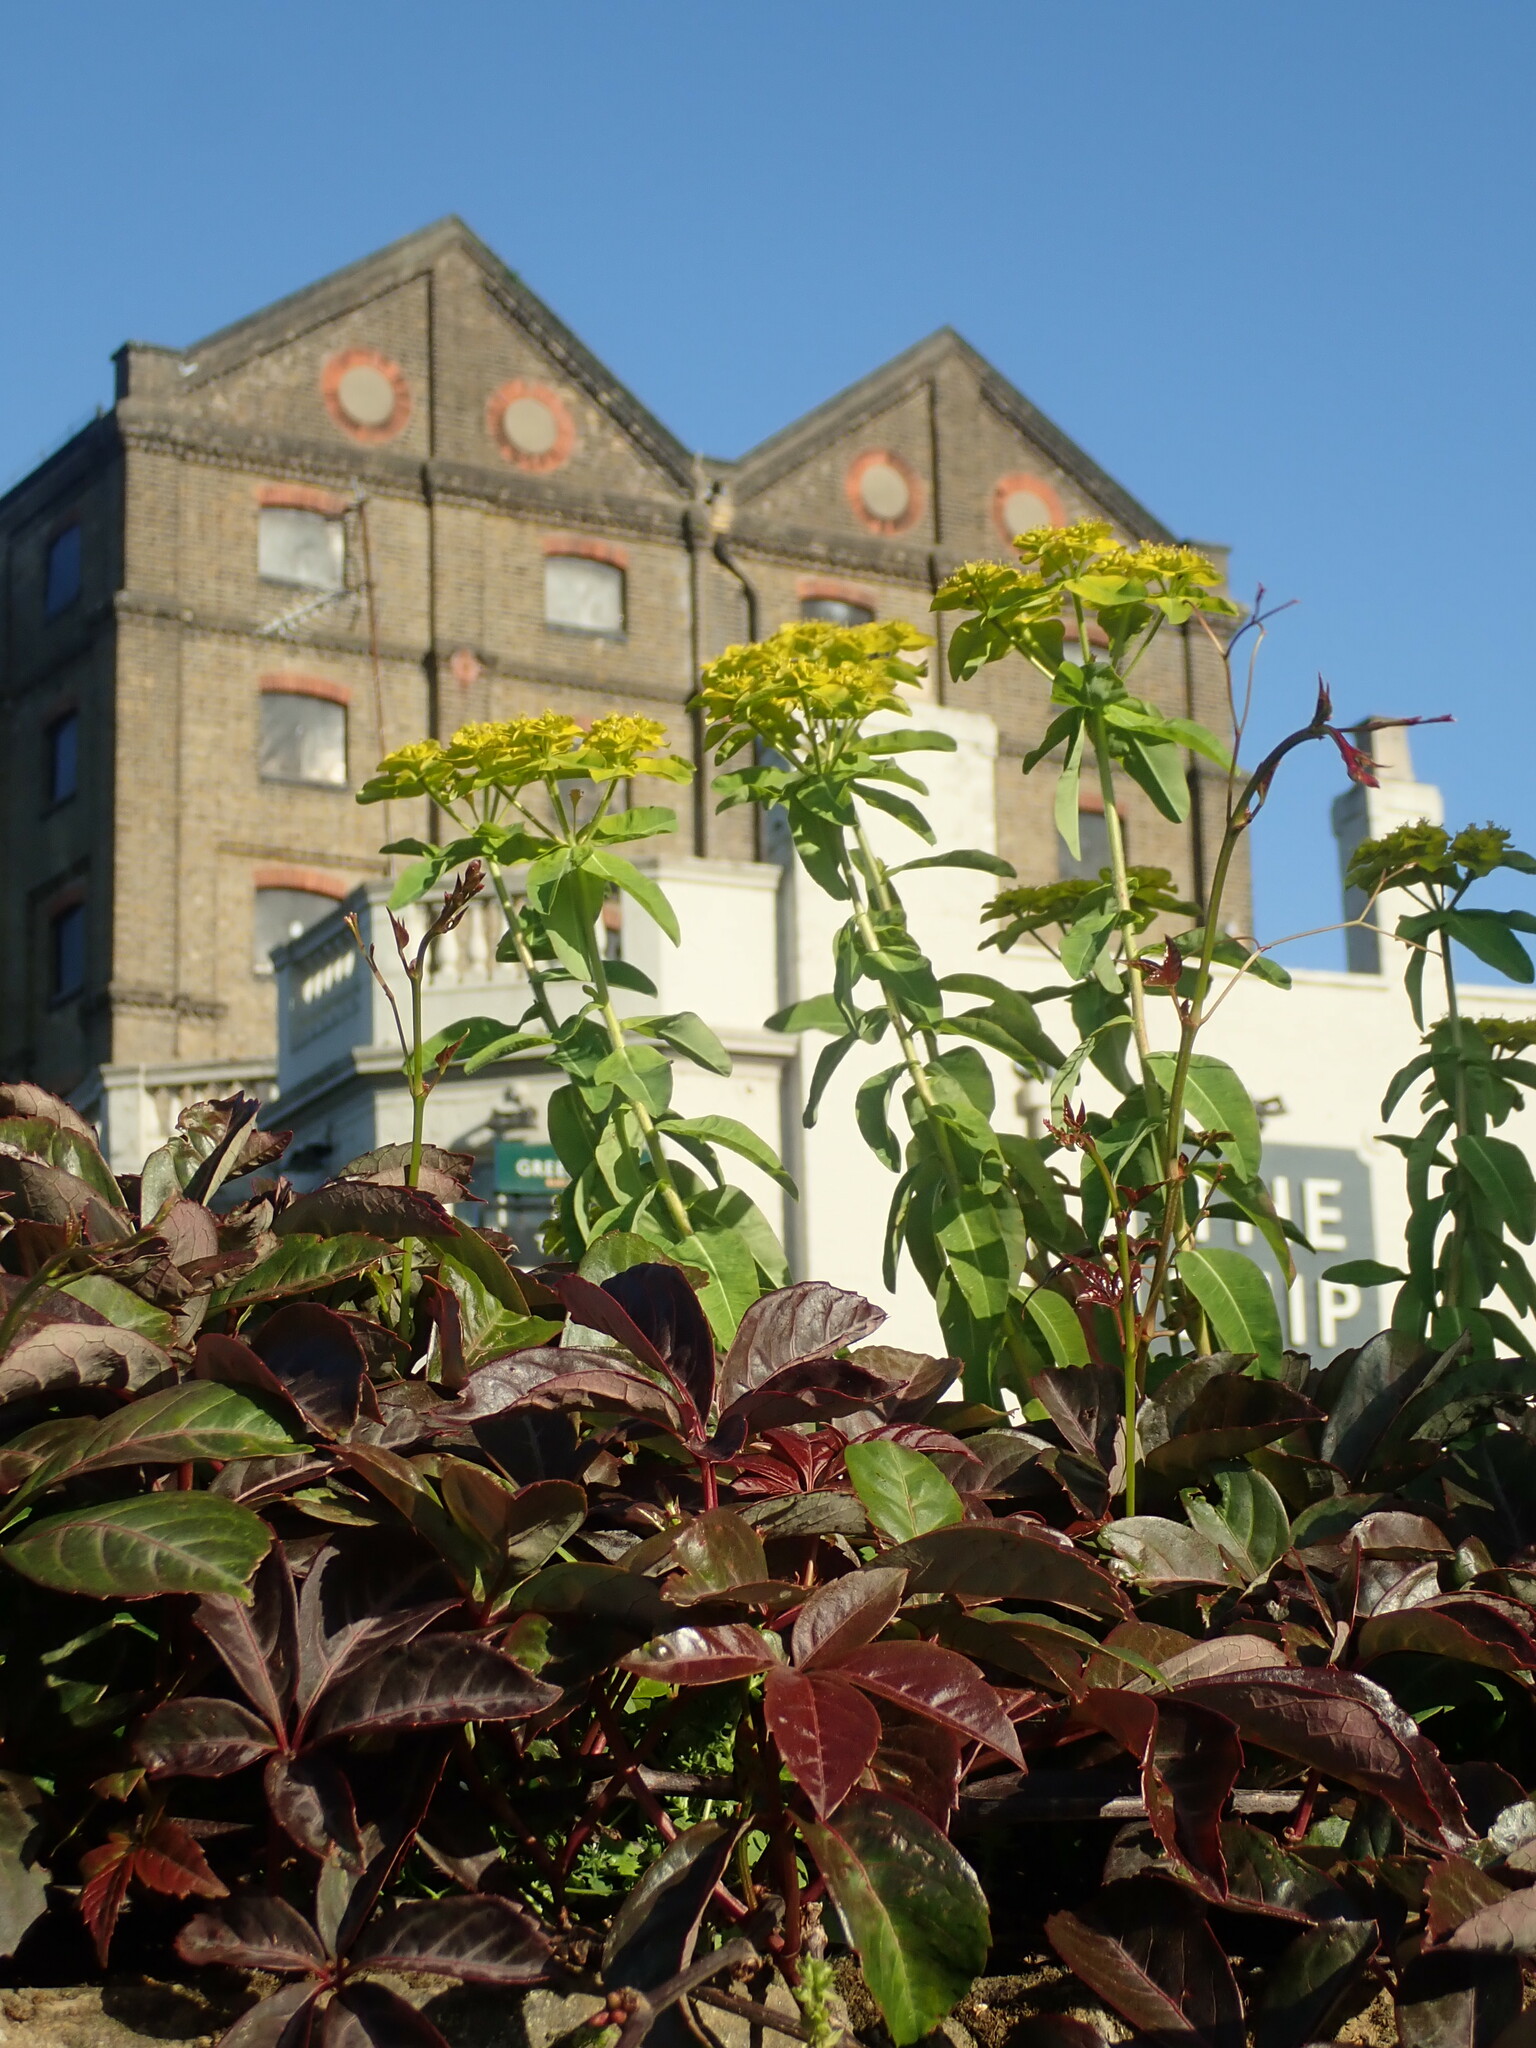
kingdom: Plantae
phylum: Tracheophyta
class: Magnoliopsida
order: Malpighiales
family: Euphorbiaceae
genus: Euphorbia
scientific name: Euphorbia oblongata
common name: Balkan spurge
